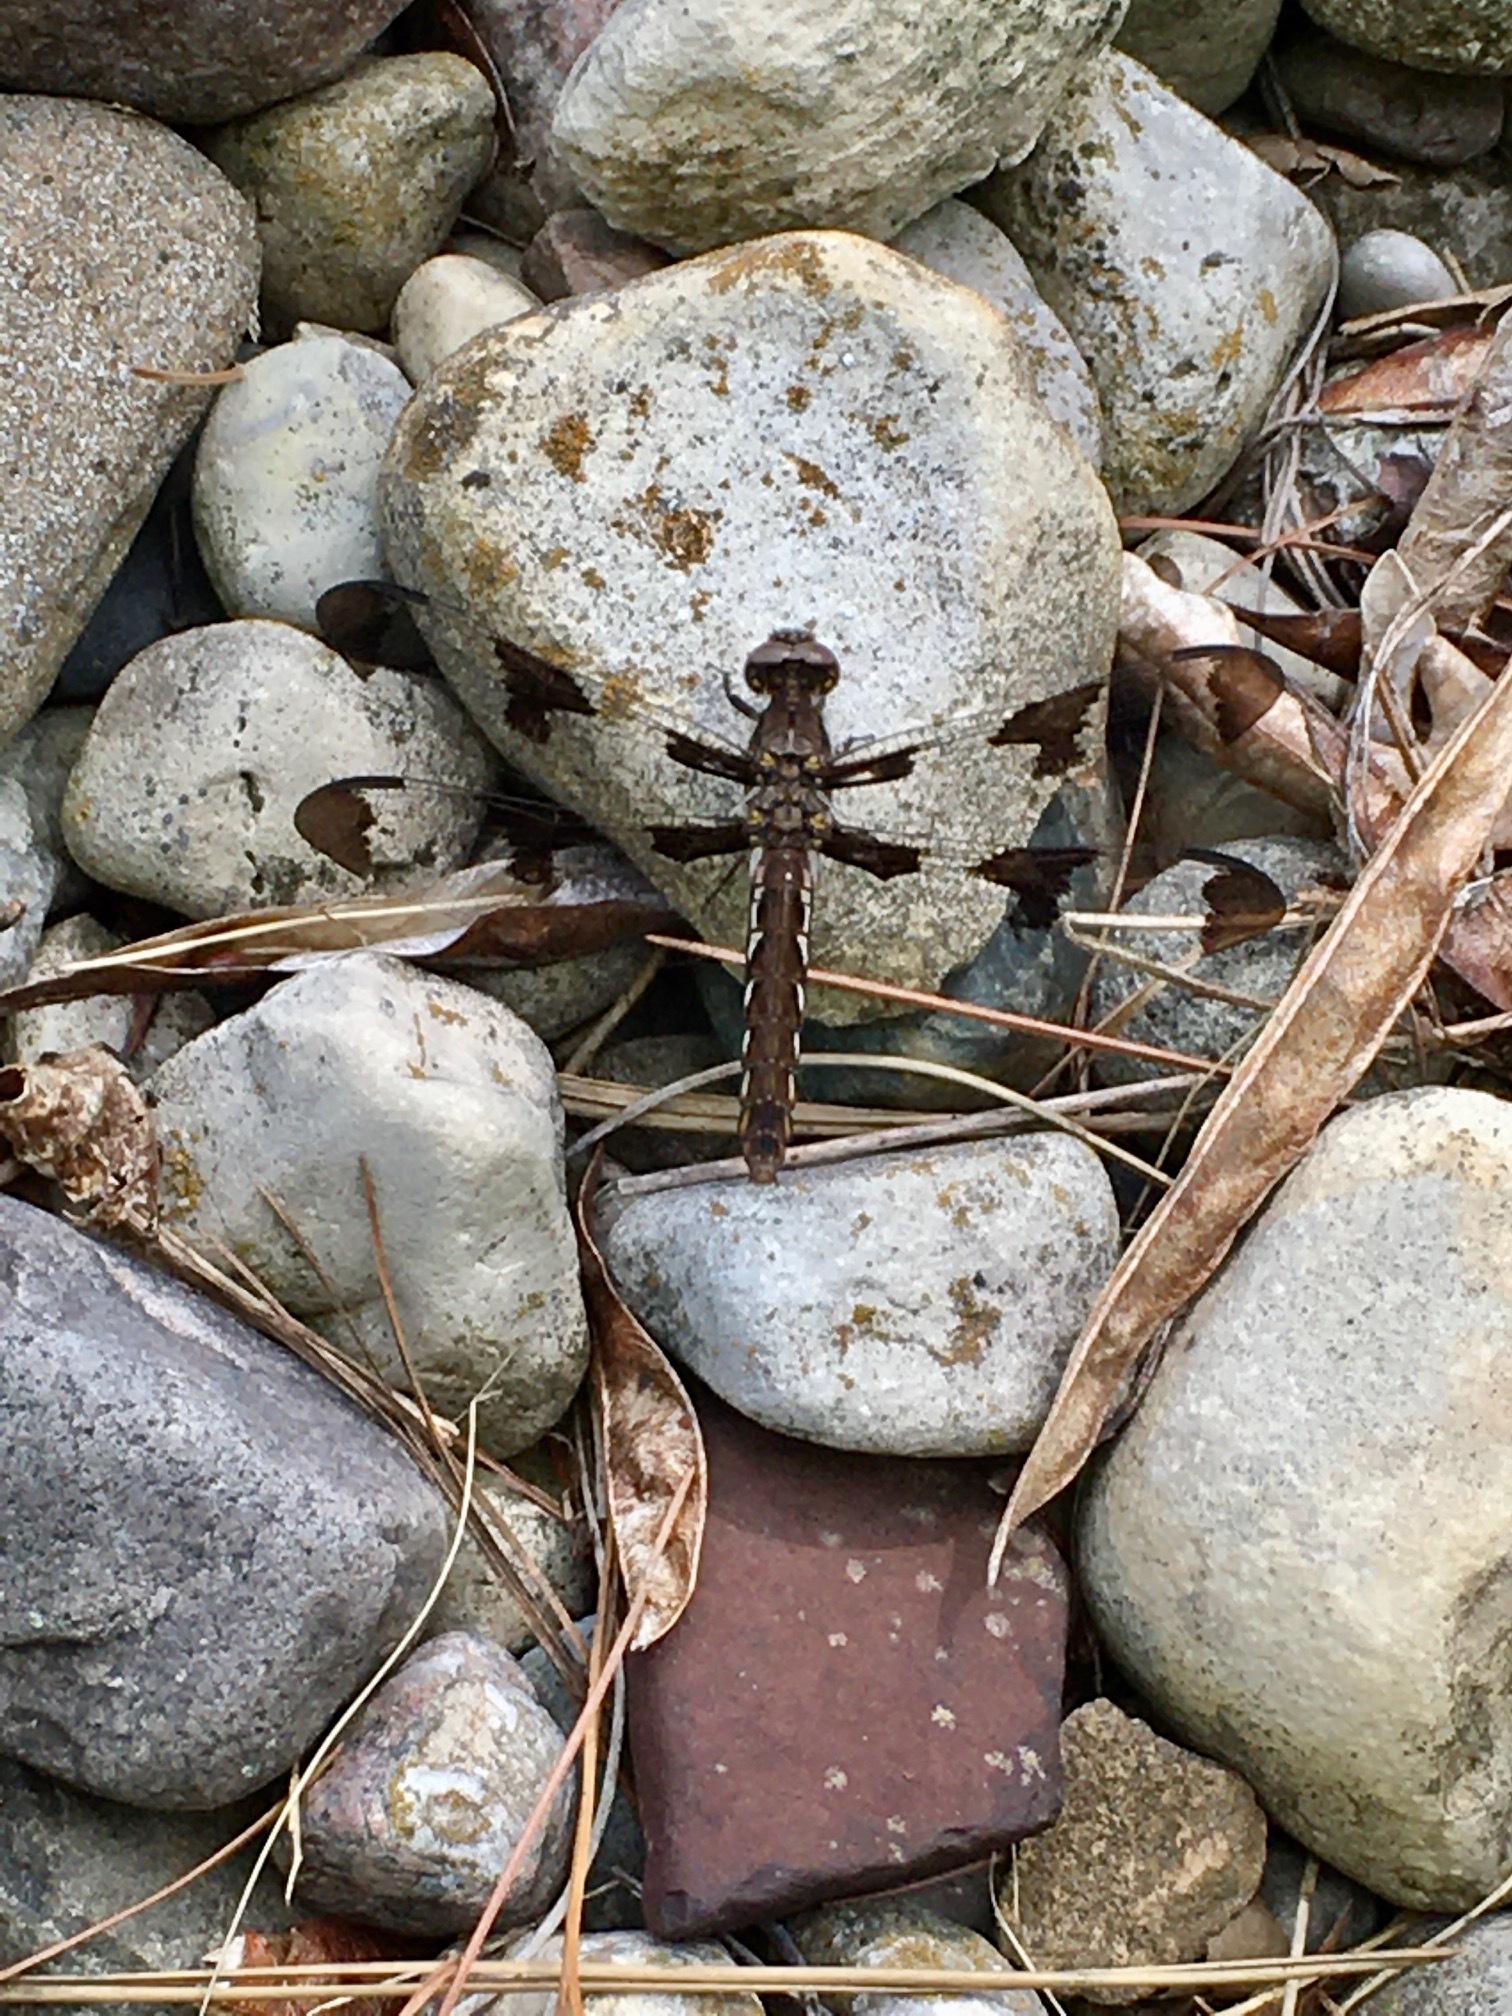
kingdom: Animalia
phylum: Arthropoda
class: Insecta
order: Odonata
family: Libellulidae
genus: Plathemis
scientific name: Plathemis lydia
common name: Common whitetail
